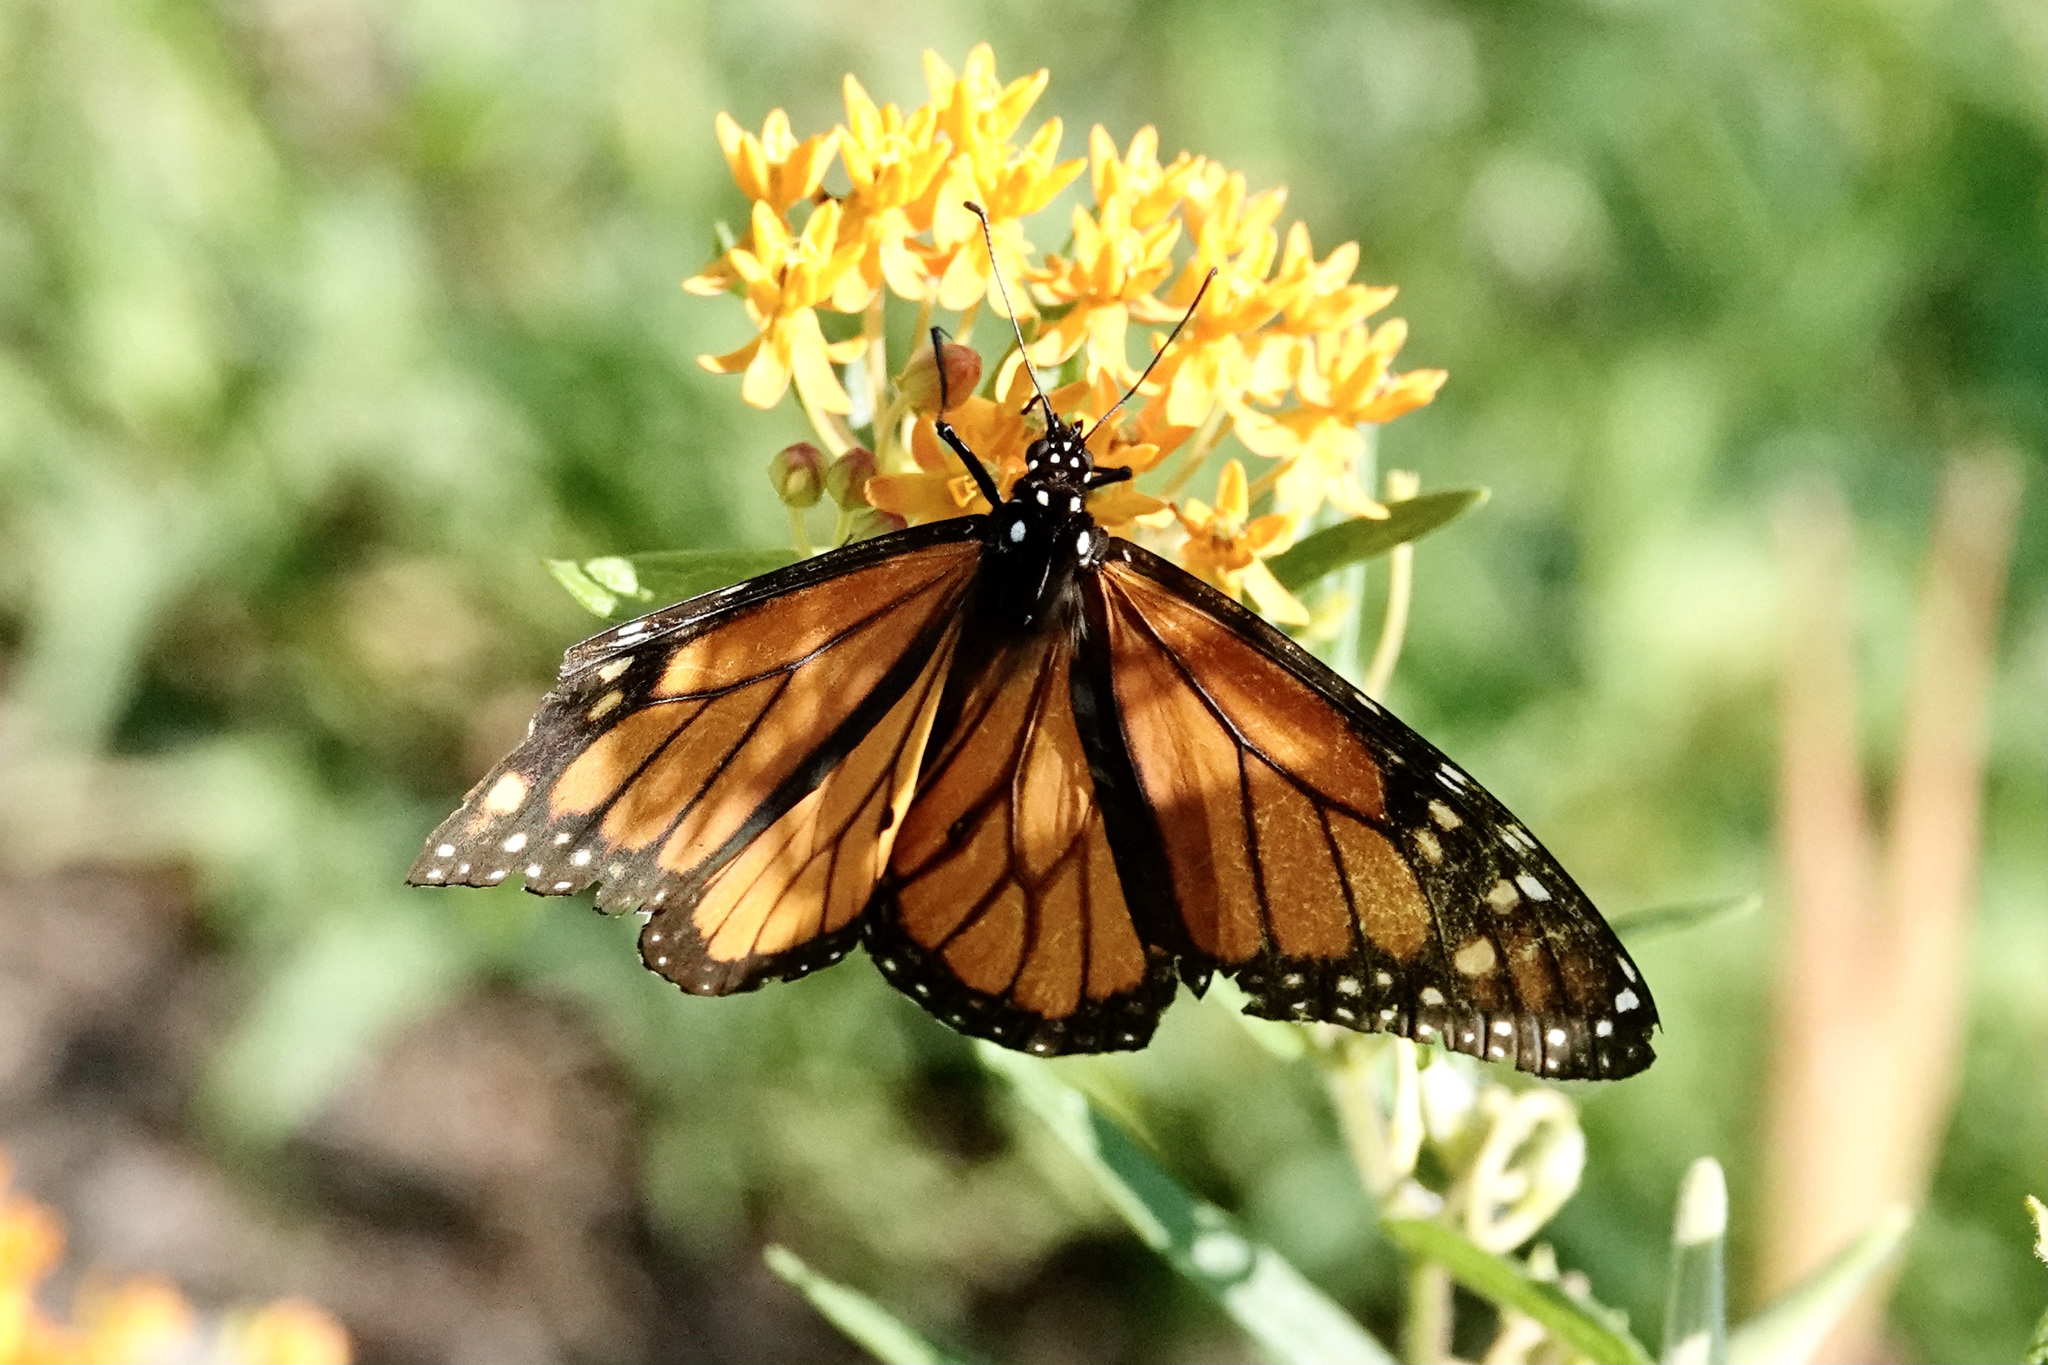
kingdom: Animalia
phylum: Arthropoda
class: Insecta
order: Lepidoptera
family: Nymphalidae
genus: Danaus
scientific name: Danaus plexippus
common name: Monarch
